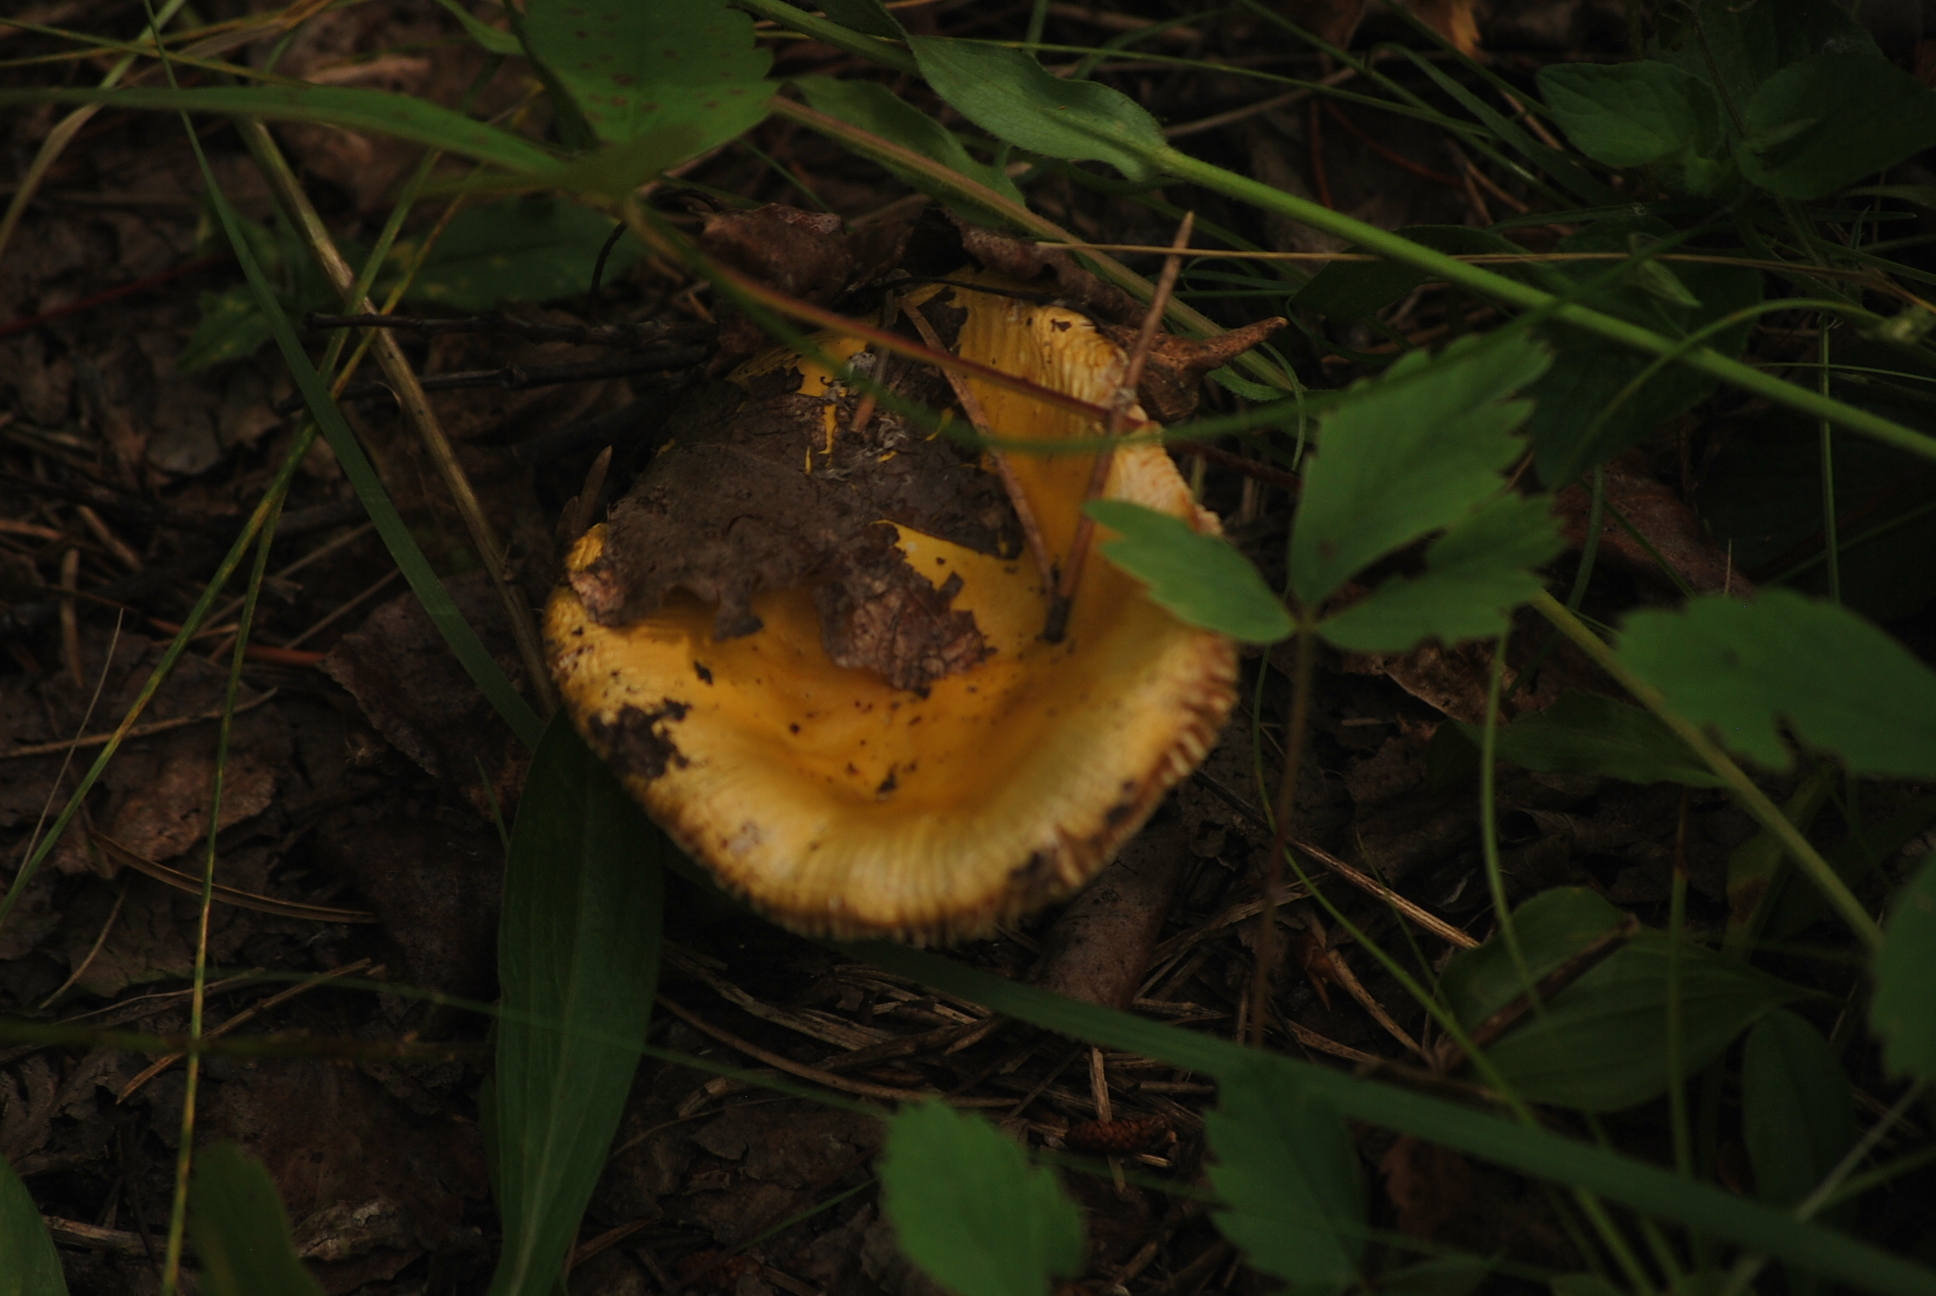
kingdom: Fungi
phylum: Basidiomycota
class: Agaricomycetes
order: Russulales
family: Russulaceae
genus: Russula
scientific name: Russula
